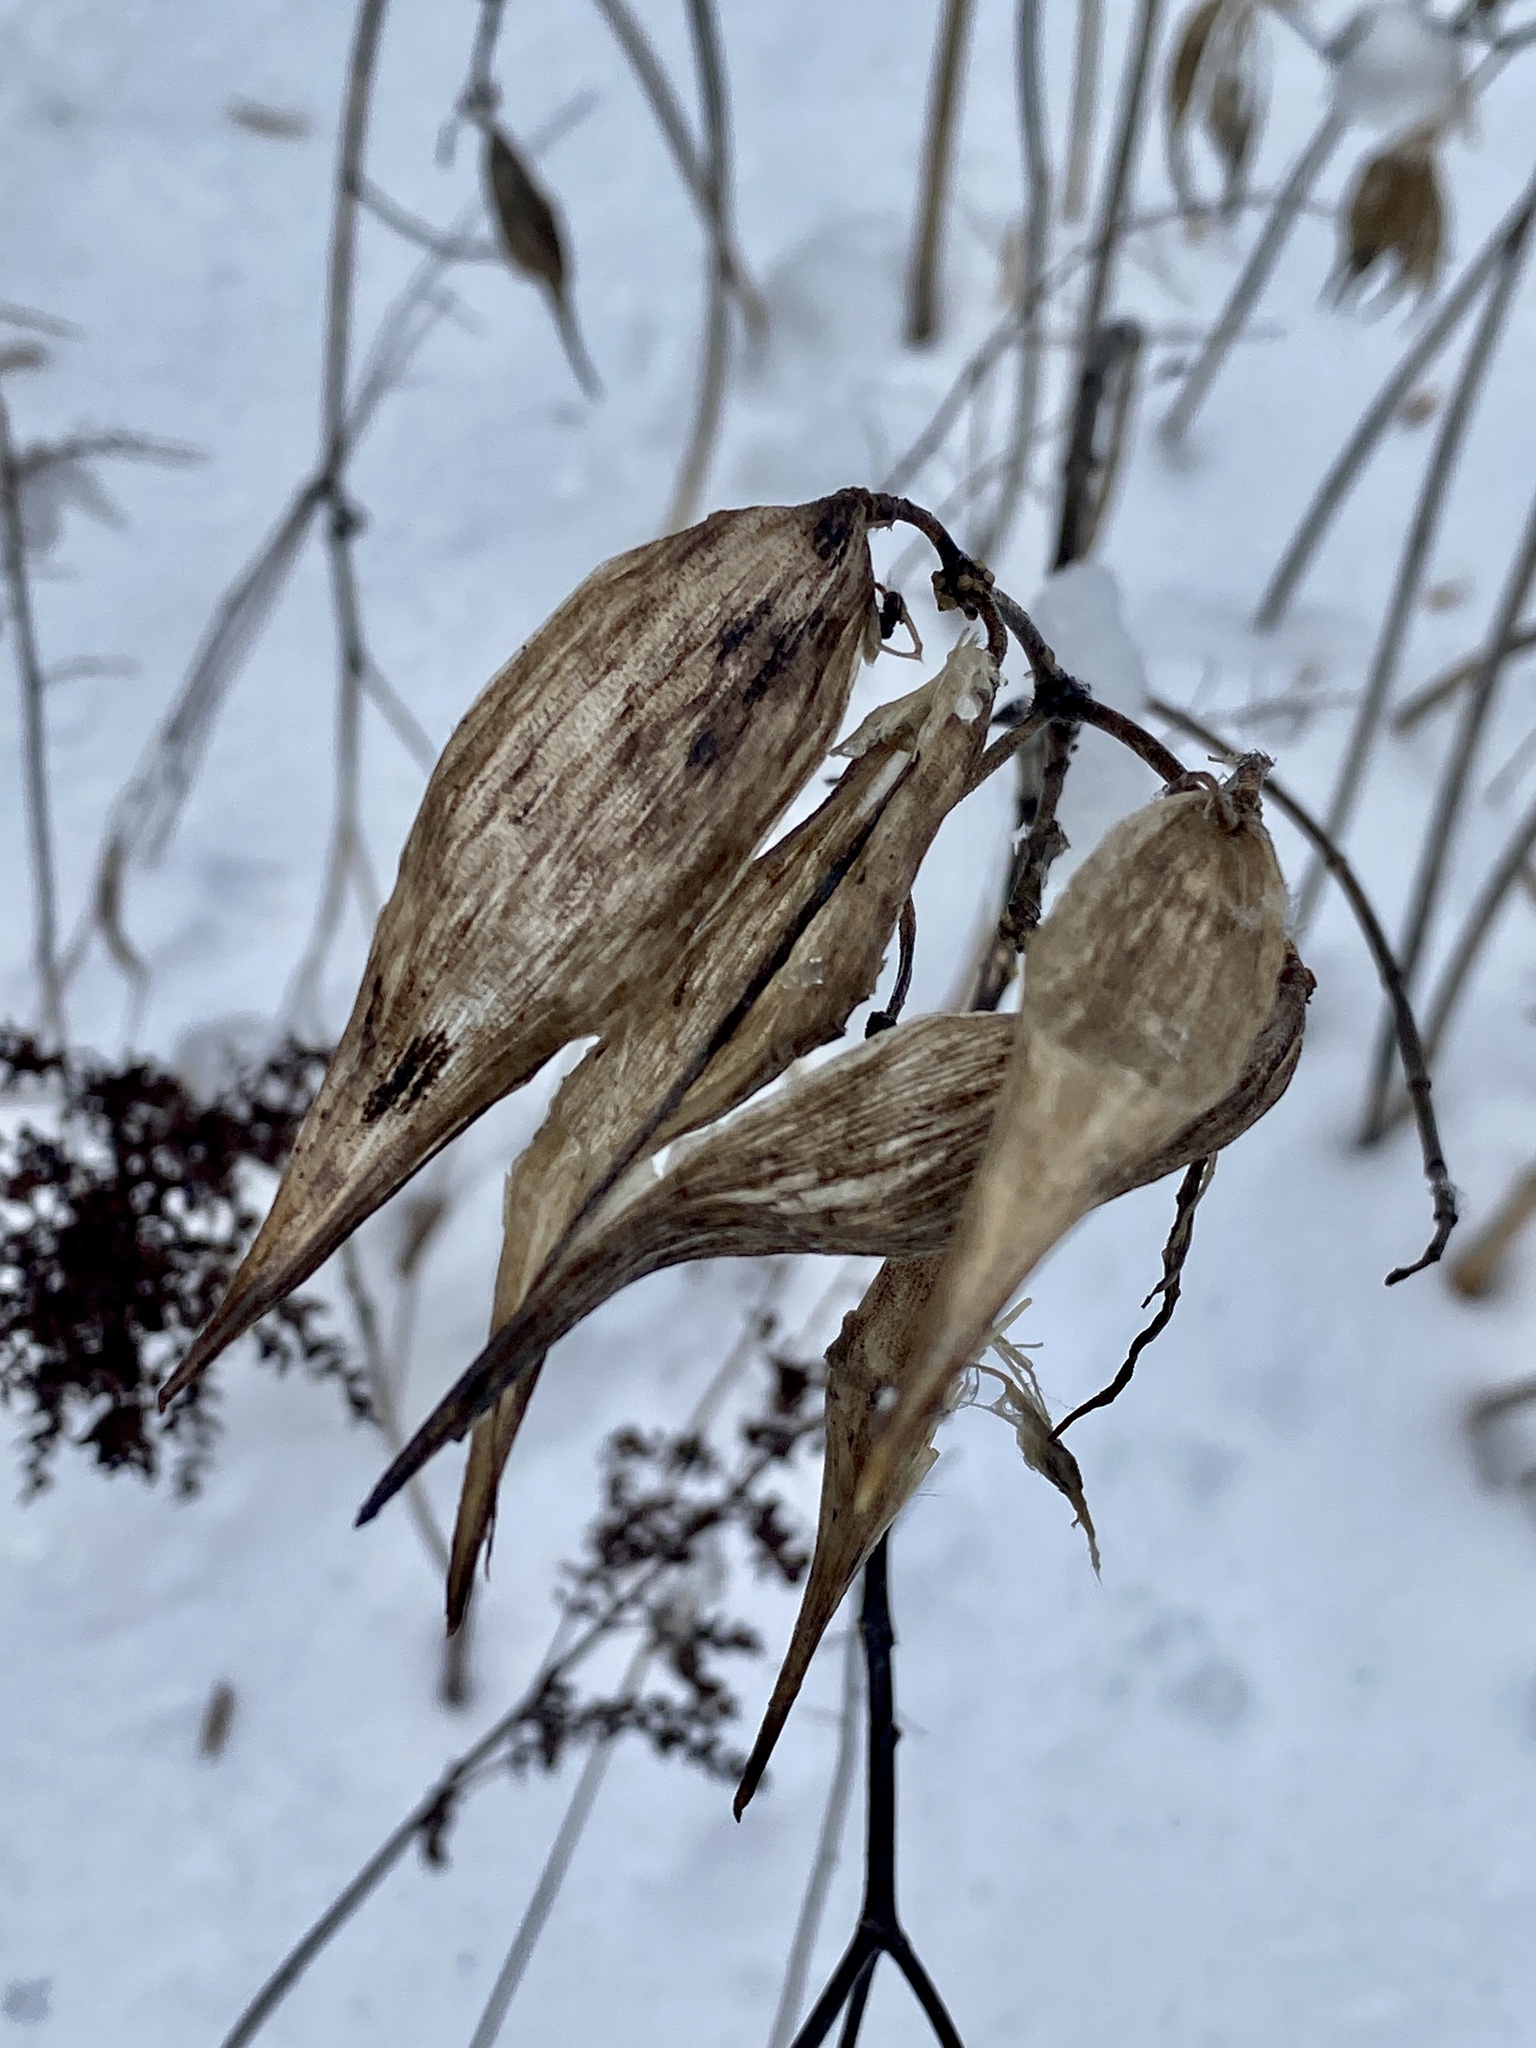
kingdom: Plantae
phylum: Tracheophyta
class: Magnoliopsida
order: Gentianales
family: Apocynaceae
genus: Asclepias
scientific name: Asclepias incarnata
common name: Swamp milkweed
